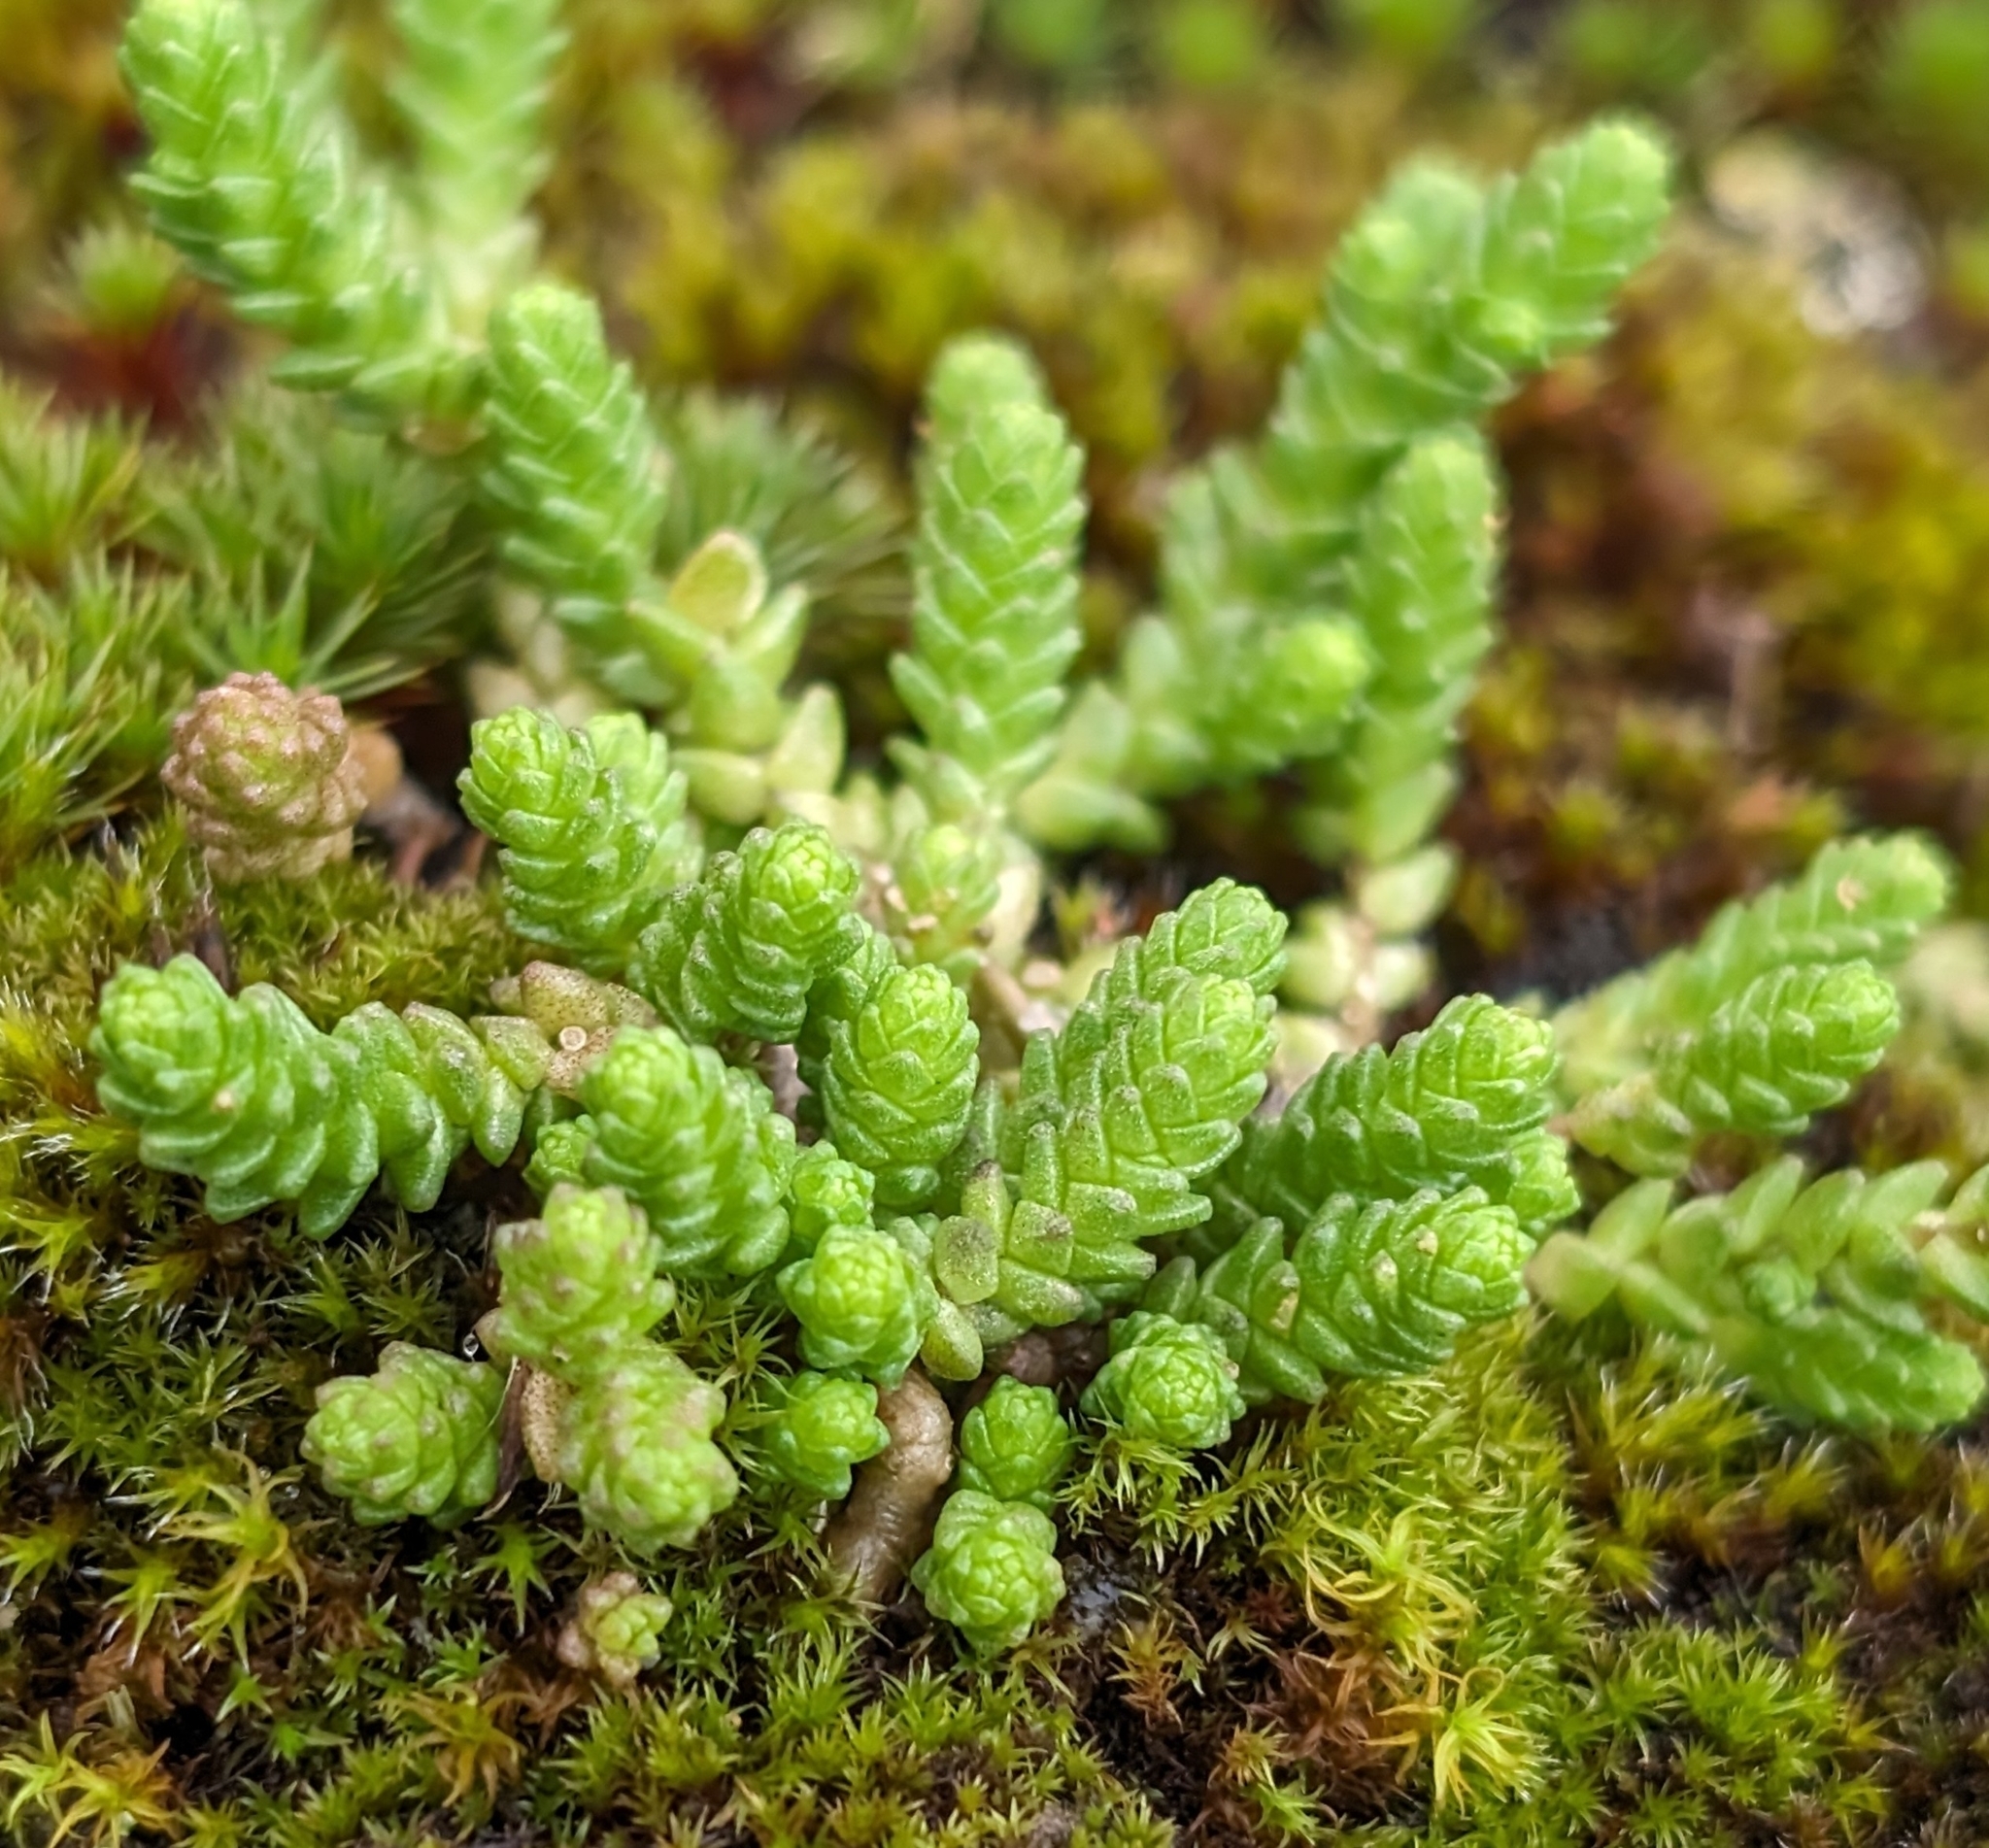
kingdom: Plantae
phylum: Tracheophyta
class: Magnoliopsida
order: Saxifragales
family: Crassulaceae
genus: Sedum
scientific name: Sedum acre
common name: Biting stonecrop
